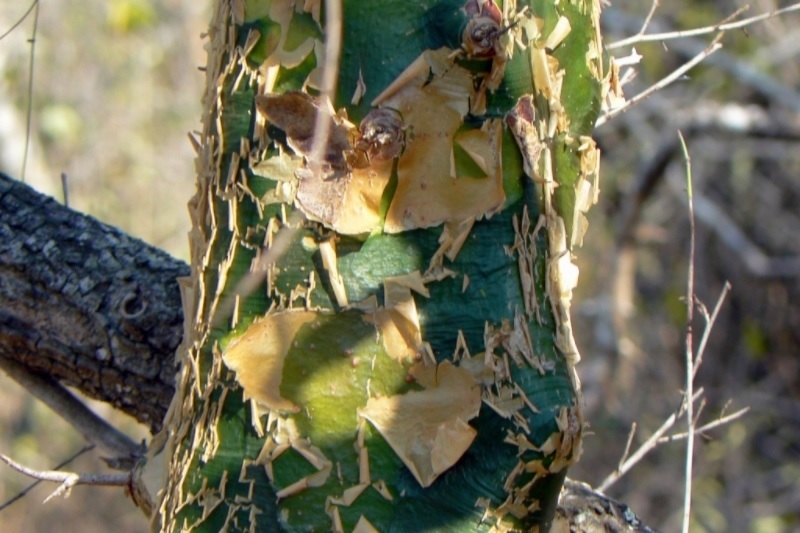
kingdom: Plantae
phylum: Tracheophyta
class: Magnoliopsida
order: Sapindales
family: Burseraceae
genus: Commiphora
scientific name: Commiphora neglecta
